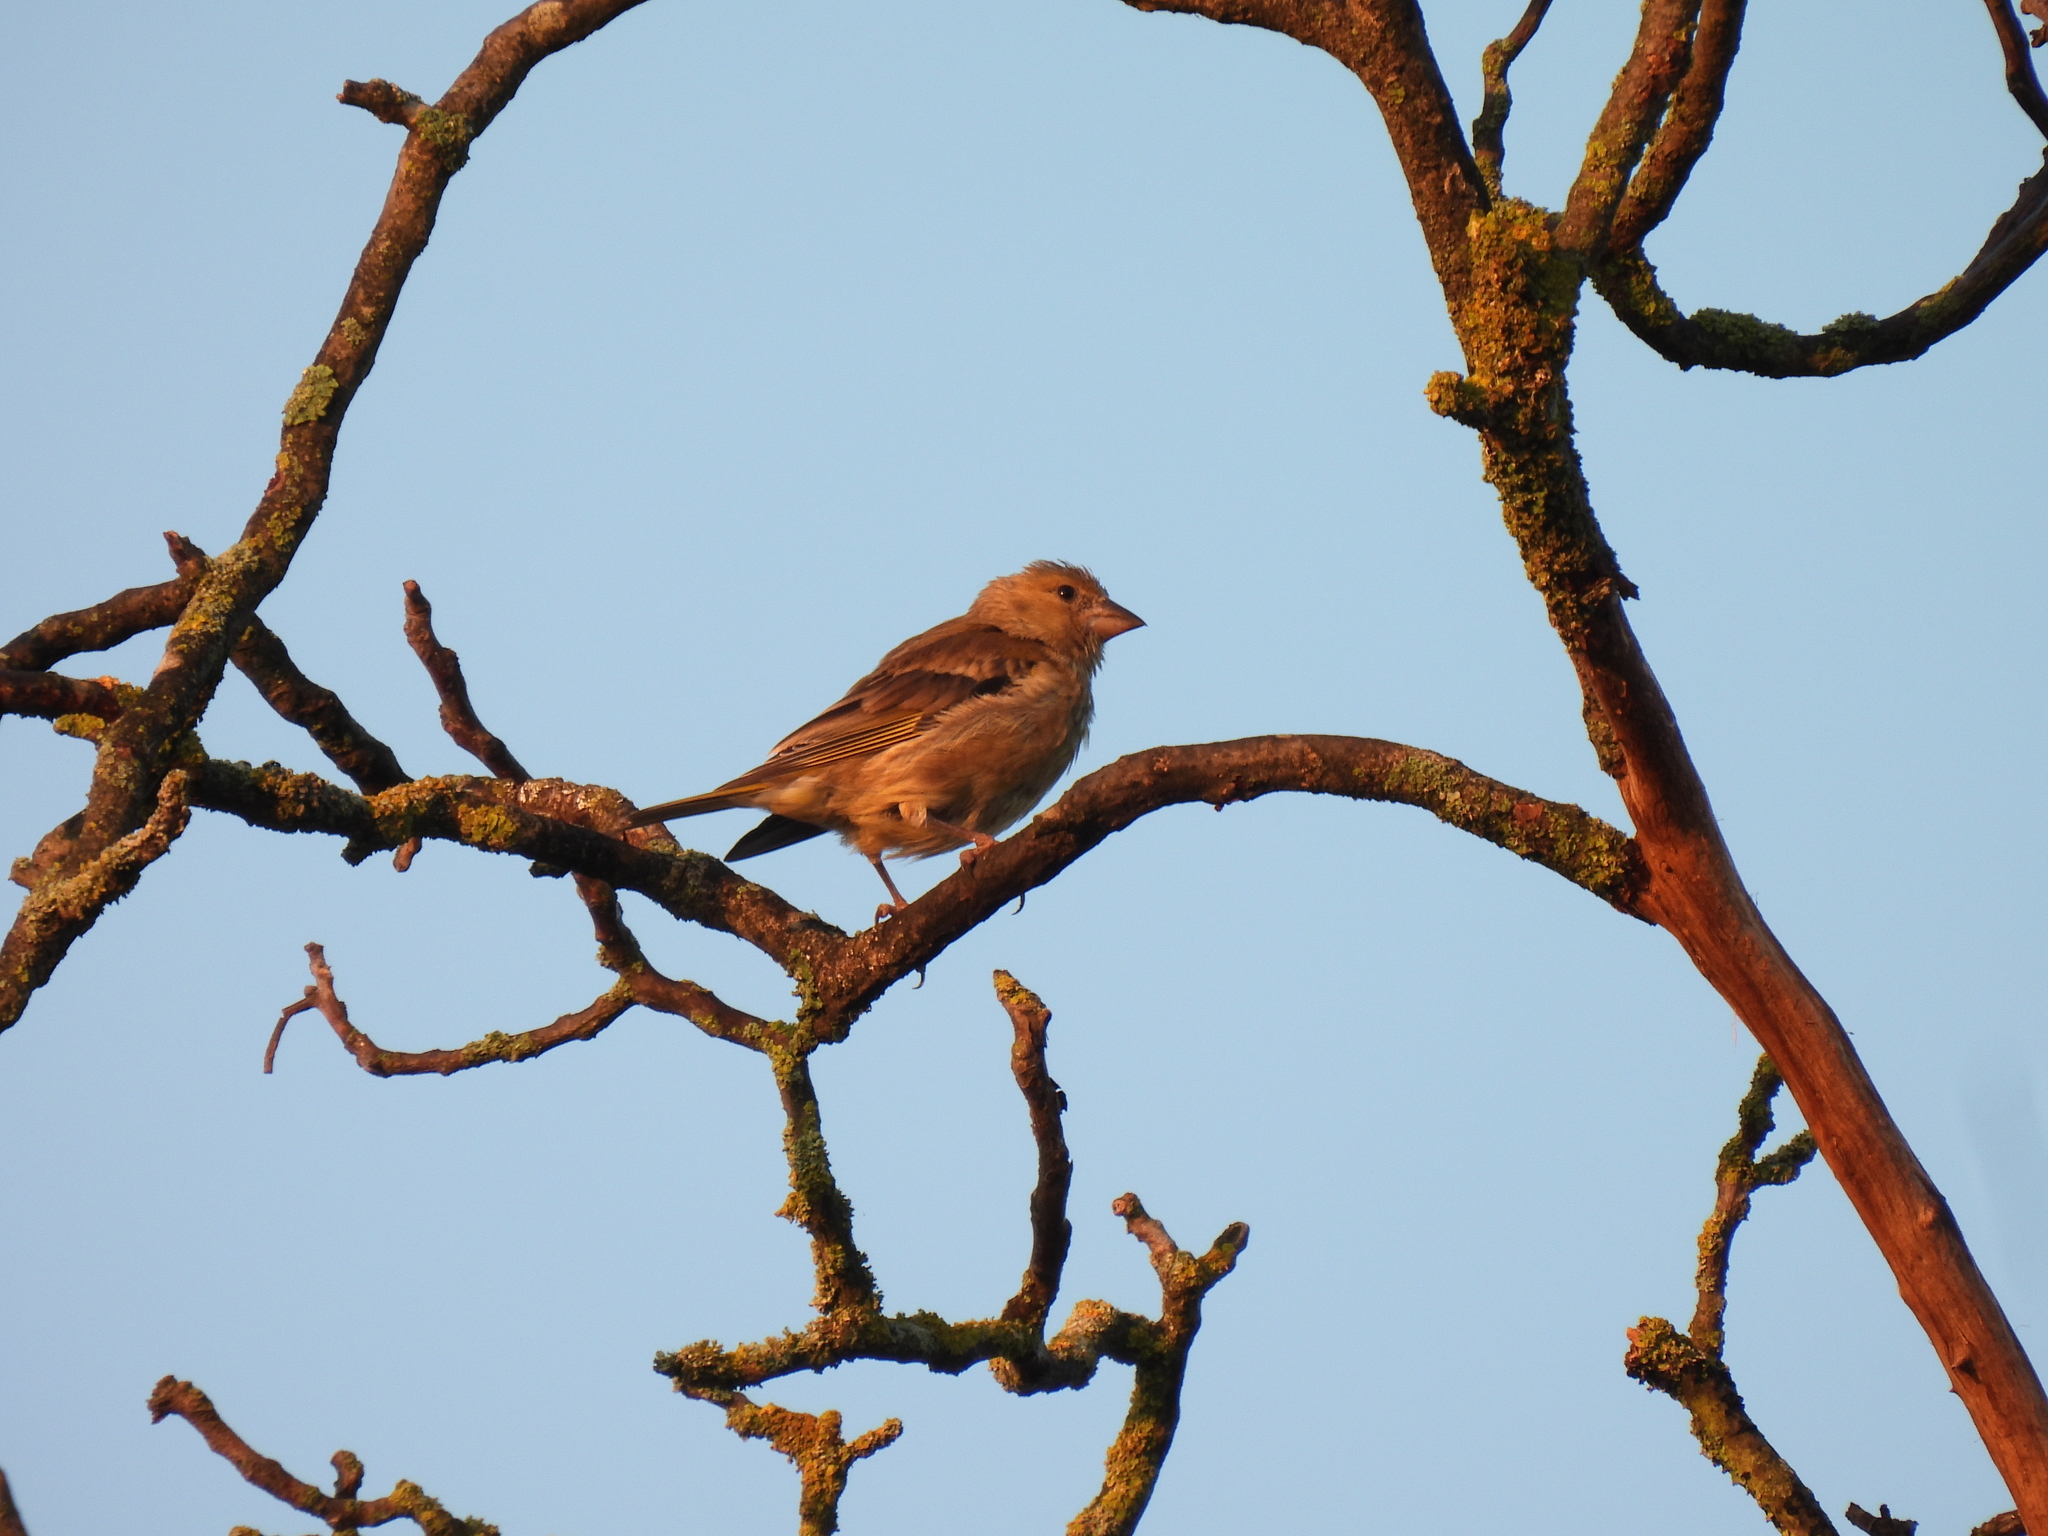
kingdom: Plantae
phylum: Tracheophyta
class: Liliopsida
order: Poales
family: Poaceae
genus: Chloris
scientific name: Chloris chloris
